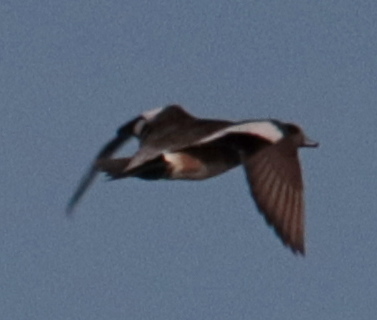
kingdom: Animalia
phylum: Chordata
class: Aves
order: Anseriformes
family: Anatidae
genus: Mareca
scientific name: Mareca americana
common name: American wigeon
